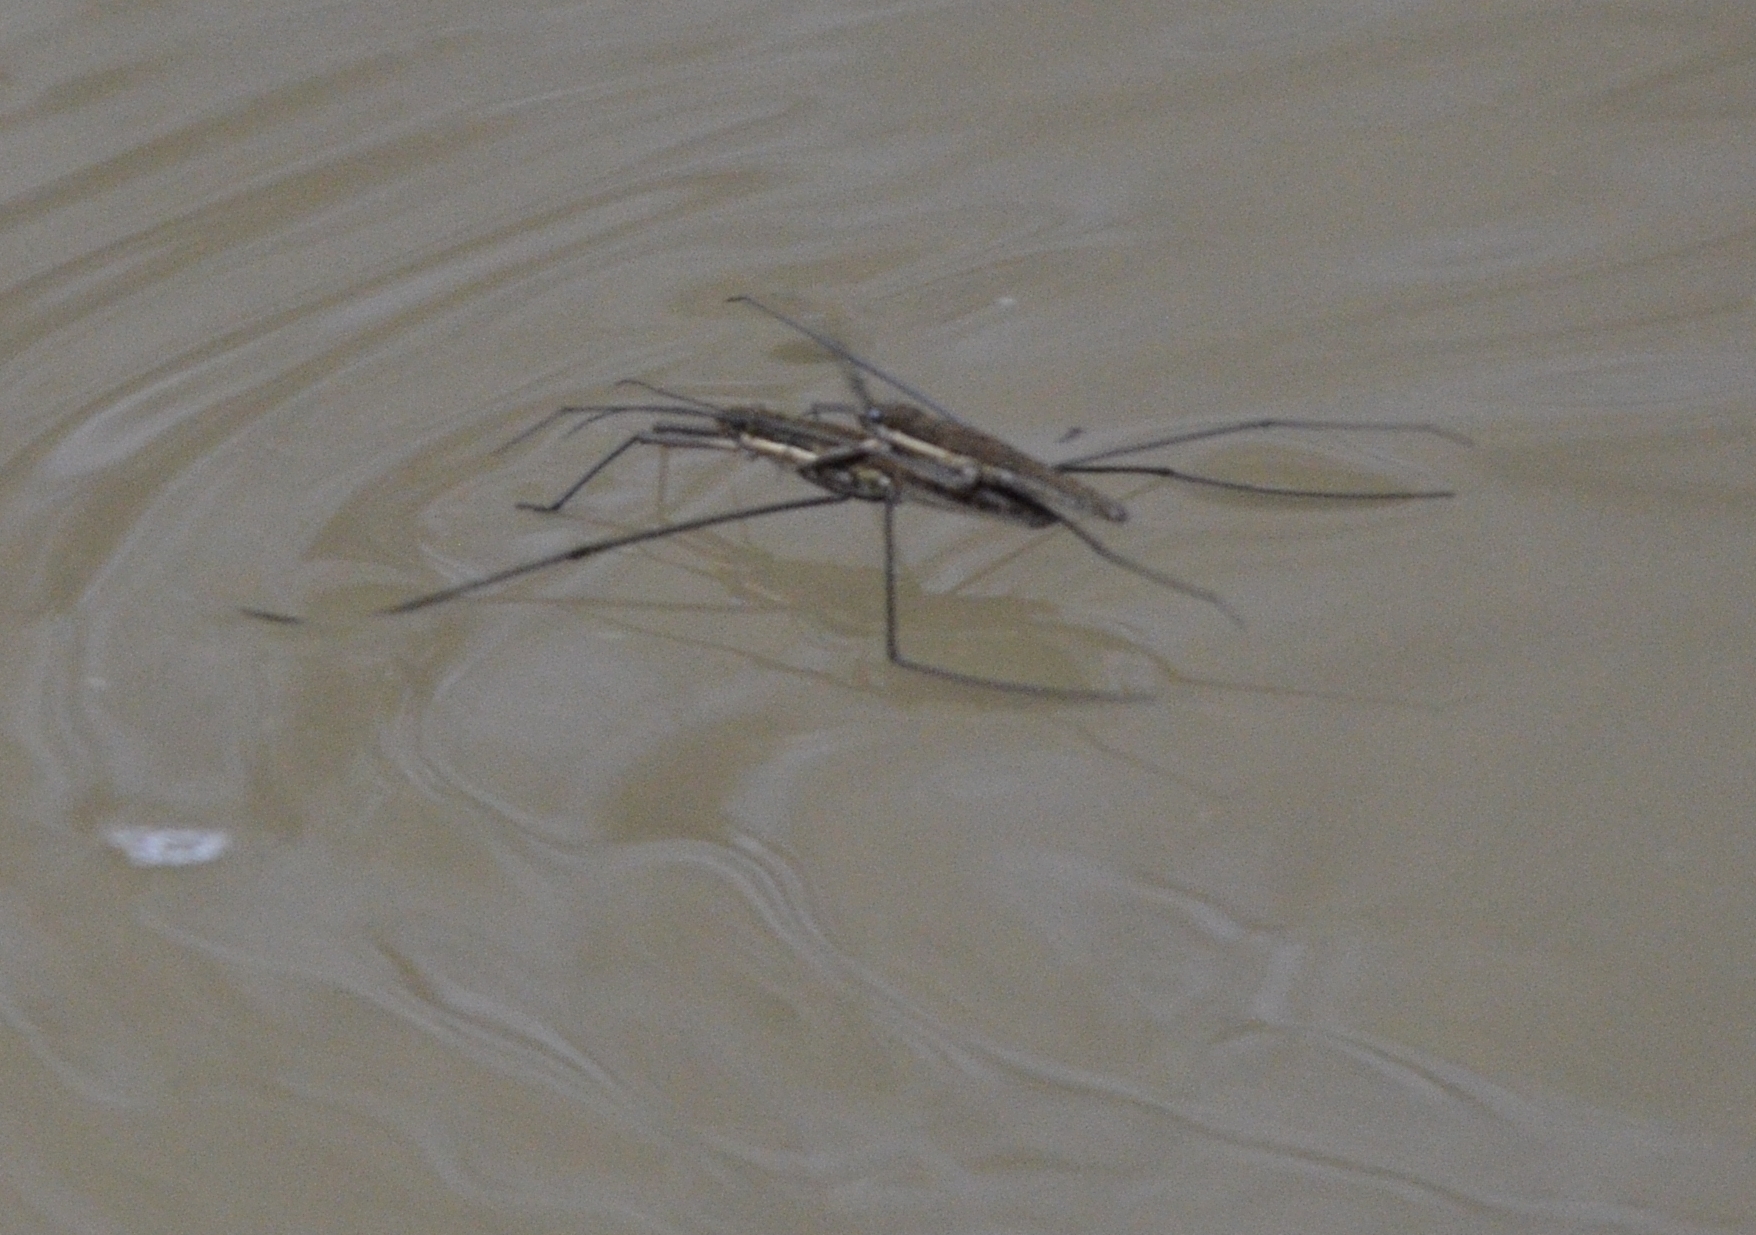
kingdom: Animalia
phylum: Arthropoda
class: Insecta
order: Hemiptera
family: Gerridae
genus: Aquarius
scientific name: Aquarius
